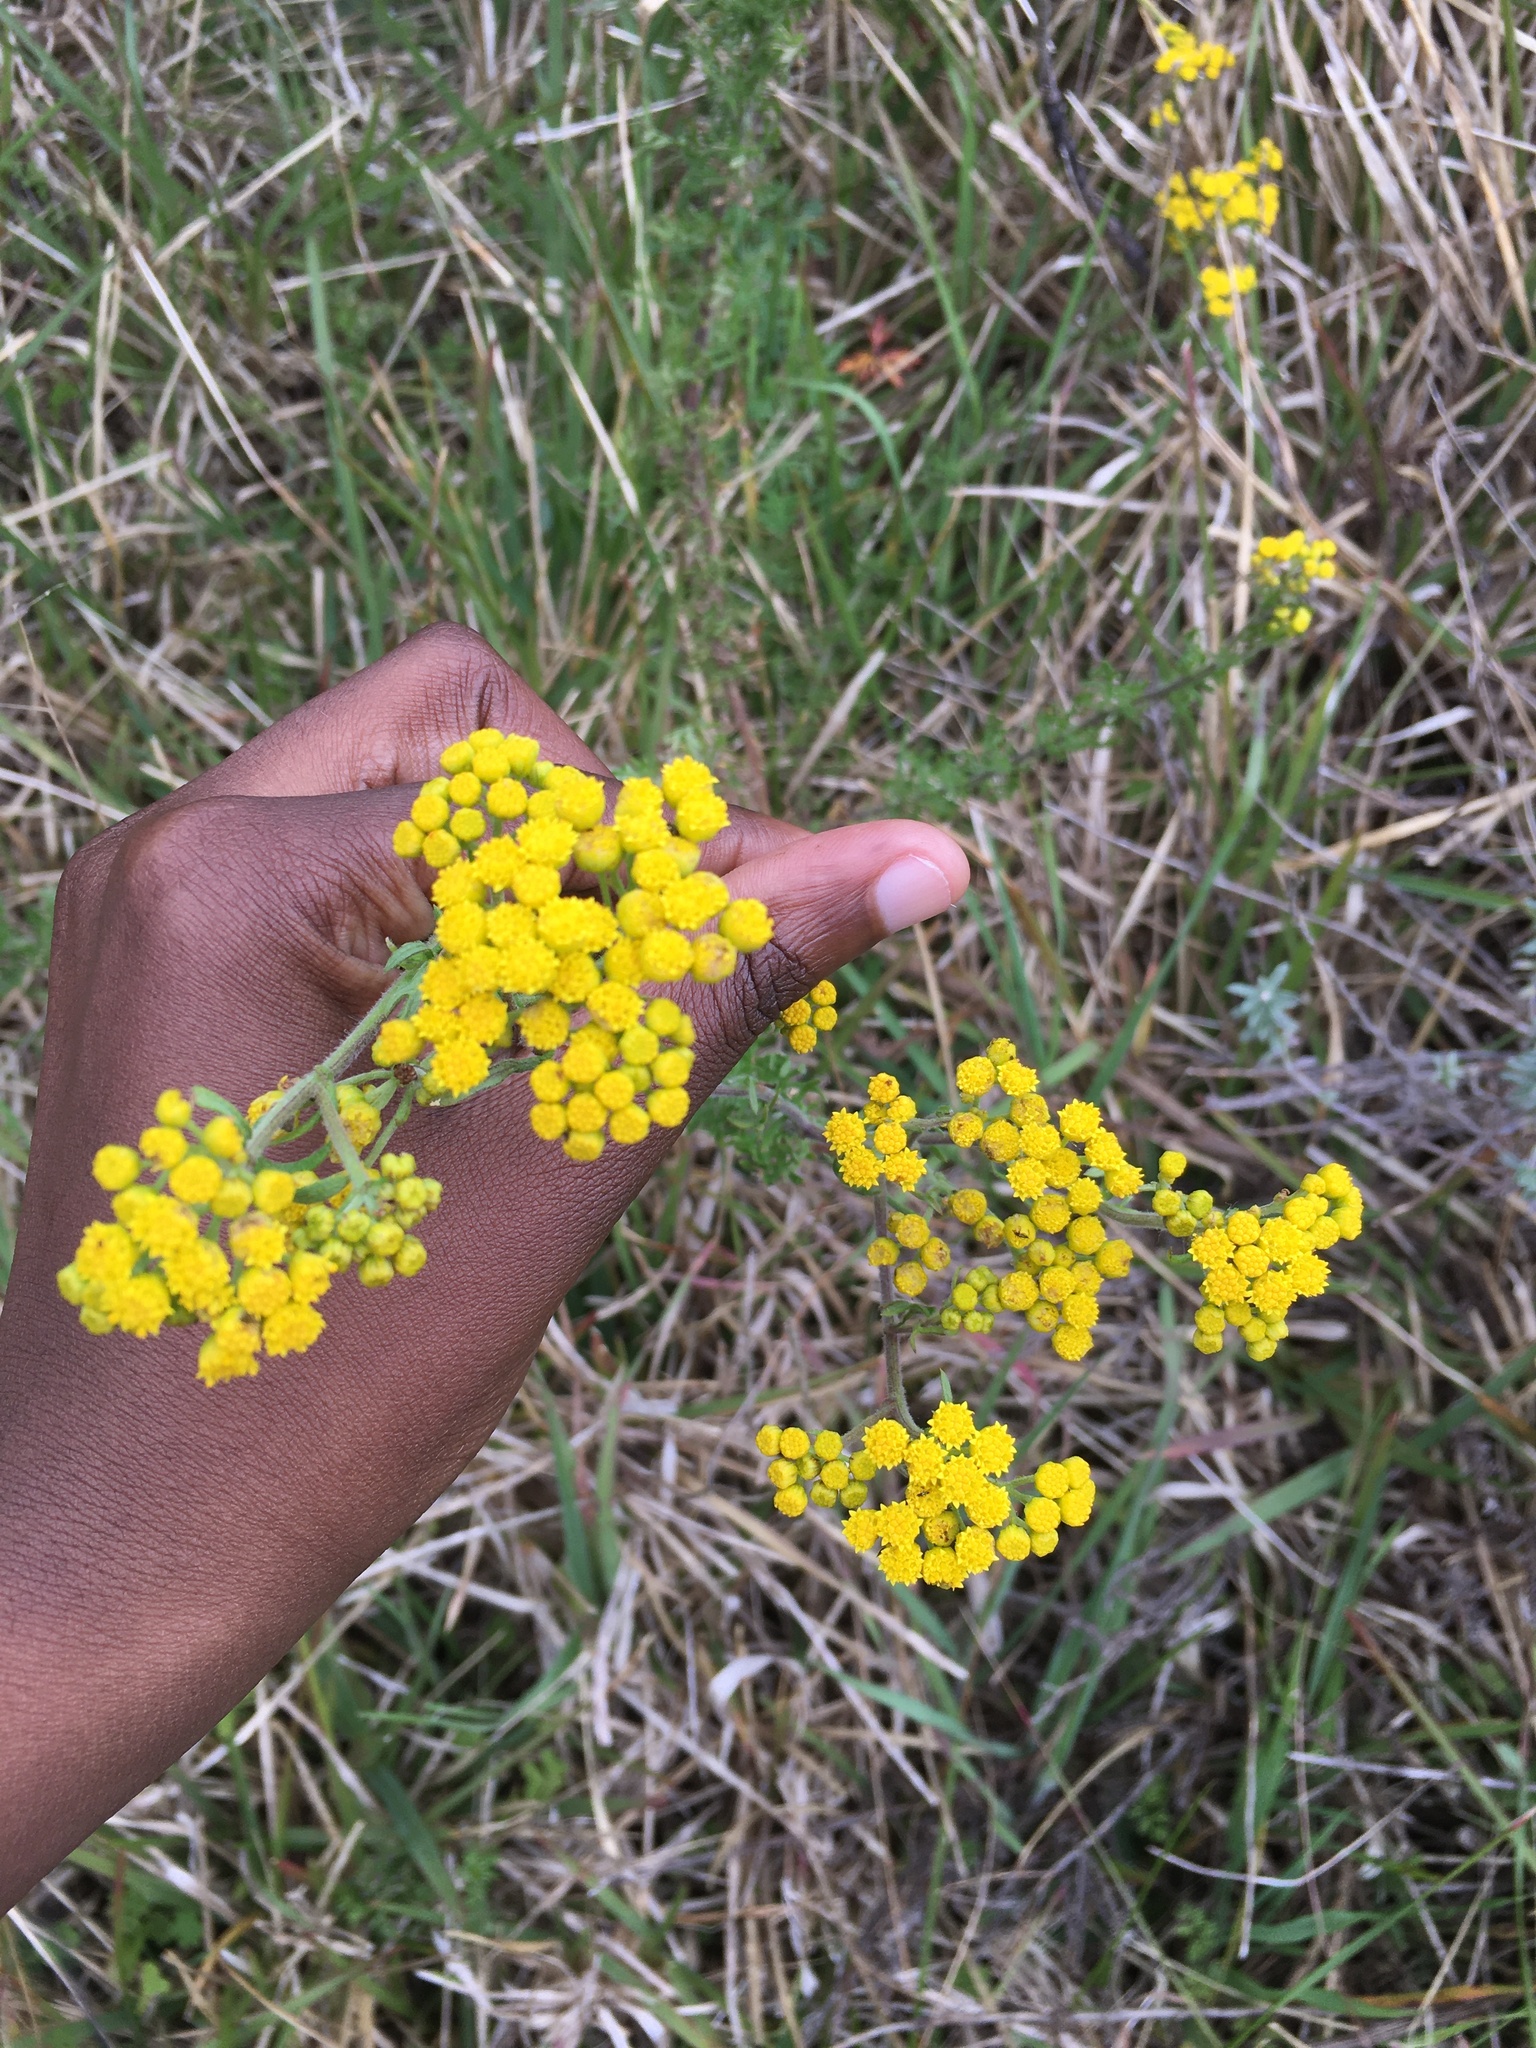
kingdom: Plantae
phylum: Tracheophyta
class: Magnoliopsida
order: Asterales
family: Asteraceae
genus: Hippia
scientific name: Hippia frutescens
